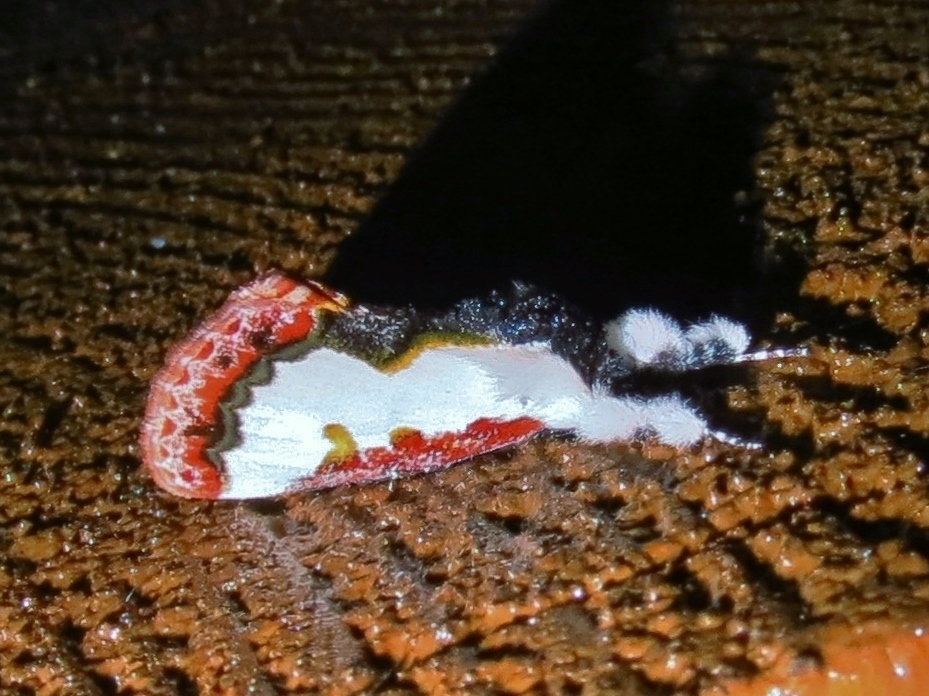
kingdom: Animalia
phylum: Arthropoda
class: Insecta
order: Lepidoptera
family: Noctuidae
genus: Eudryas
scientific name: Eudryas unio
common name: Pearly wood-nymph
